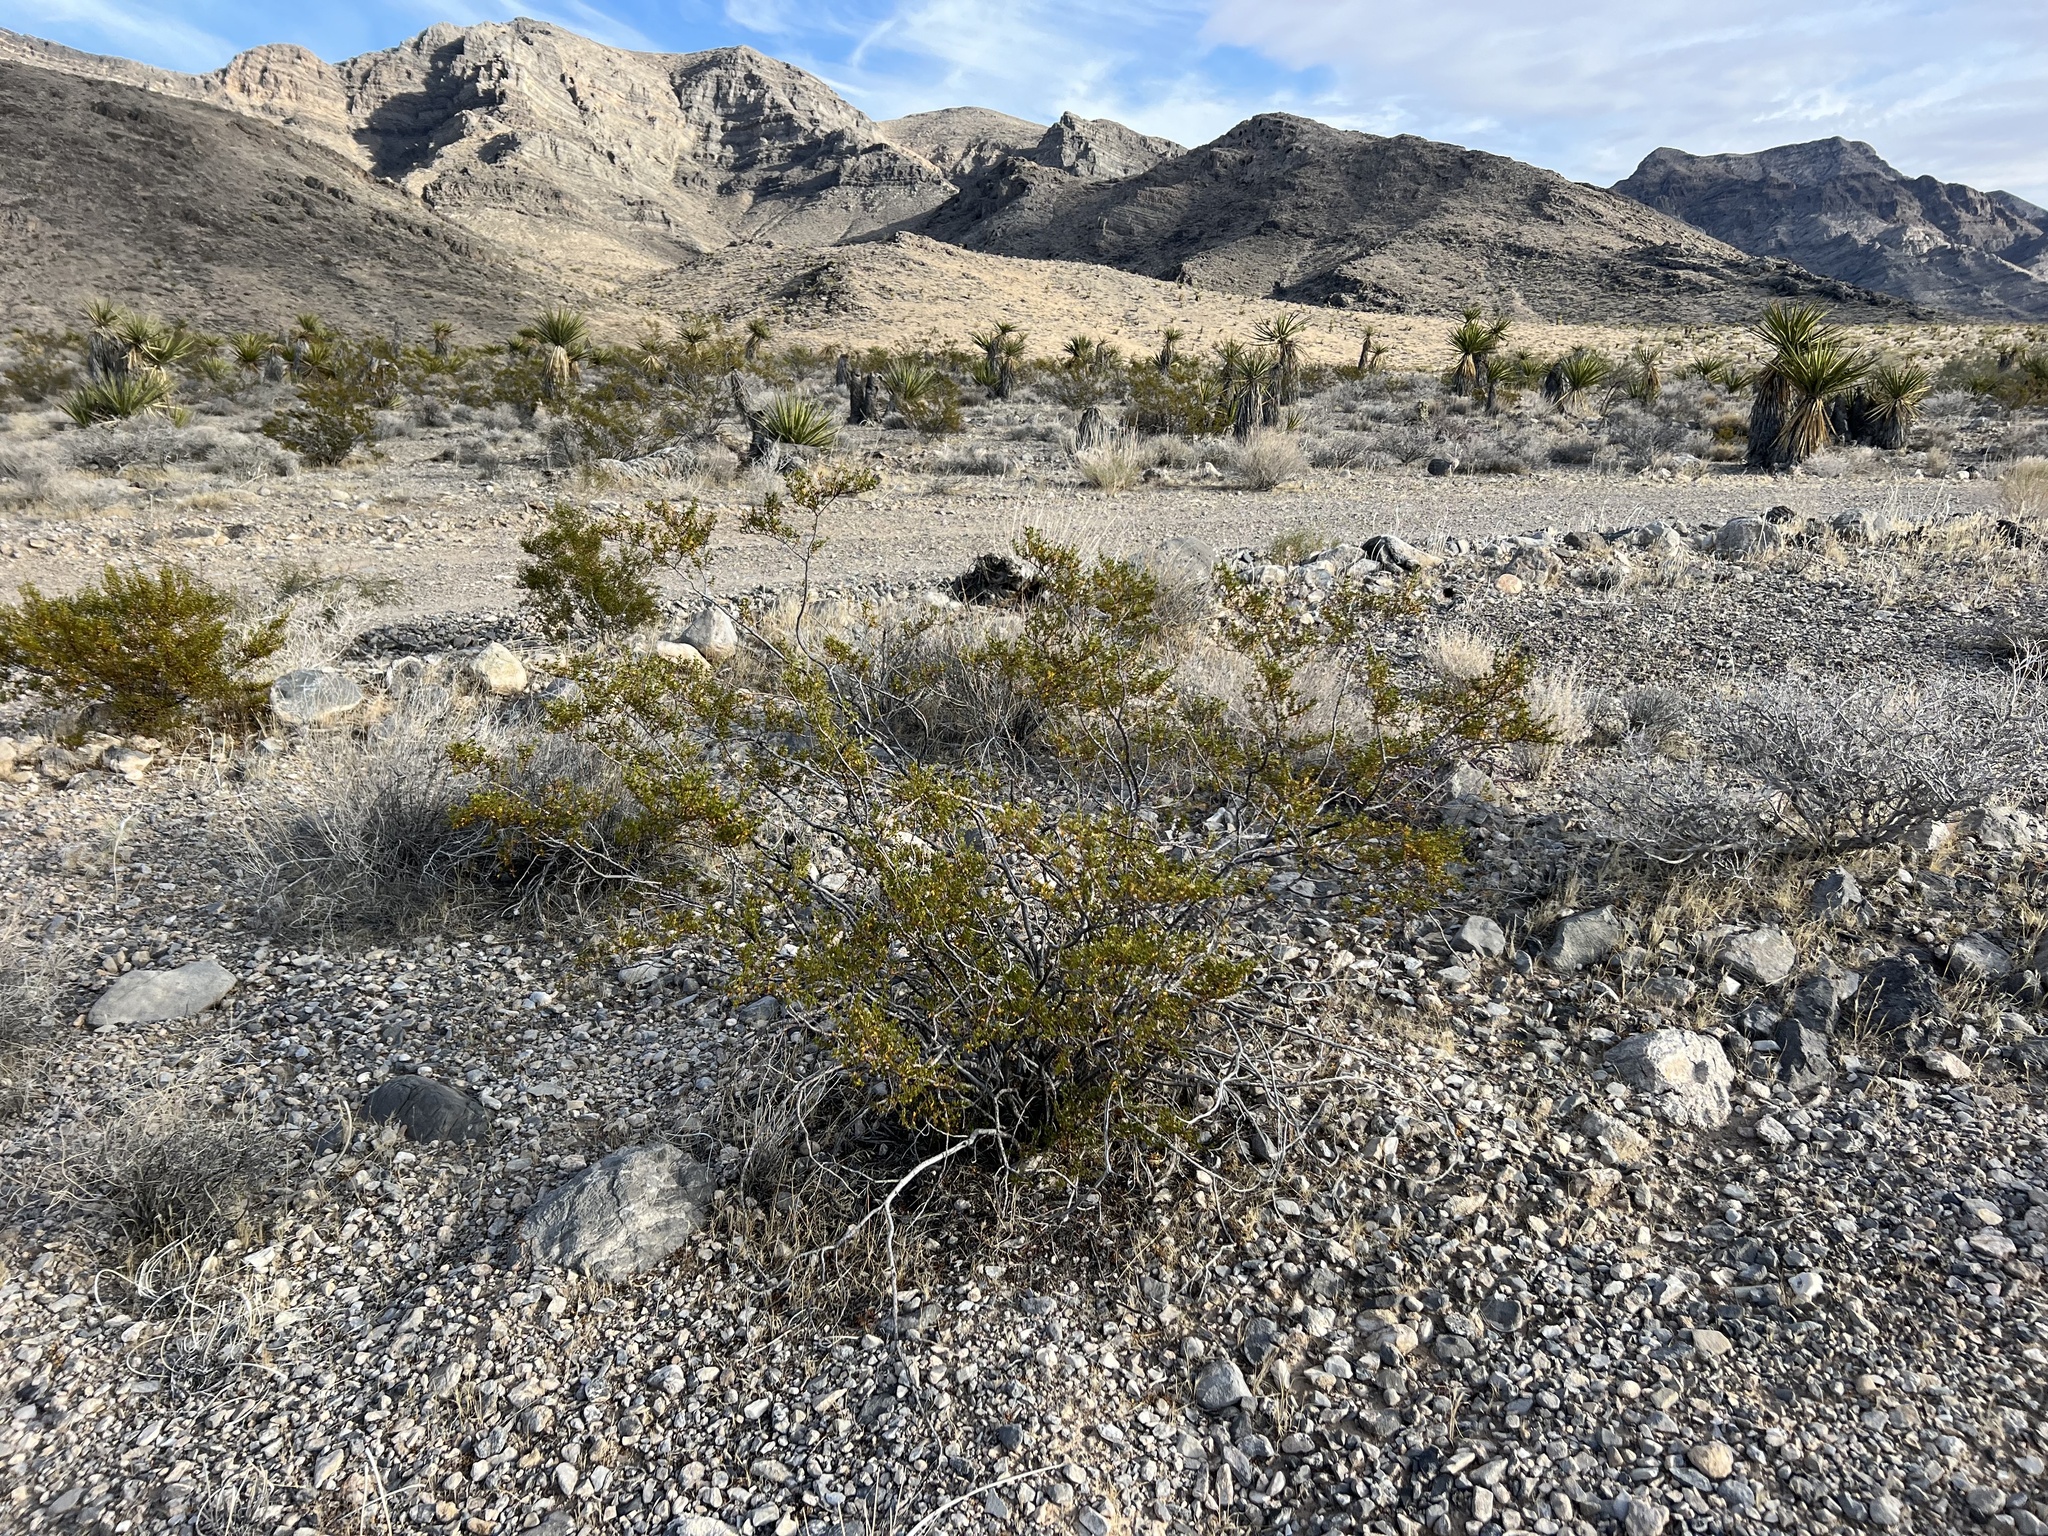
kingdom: Plantae
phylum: Tracheophyta
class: Magnoliopsida
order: Zygophyllales
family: Zygophyllaceae
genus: Larrea
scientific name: Larrea tridentata
